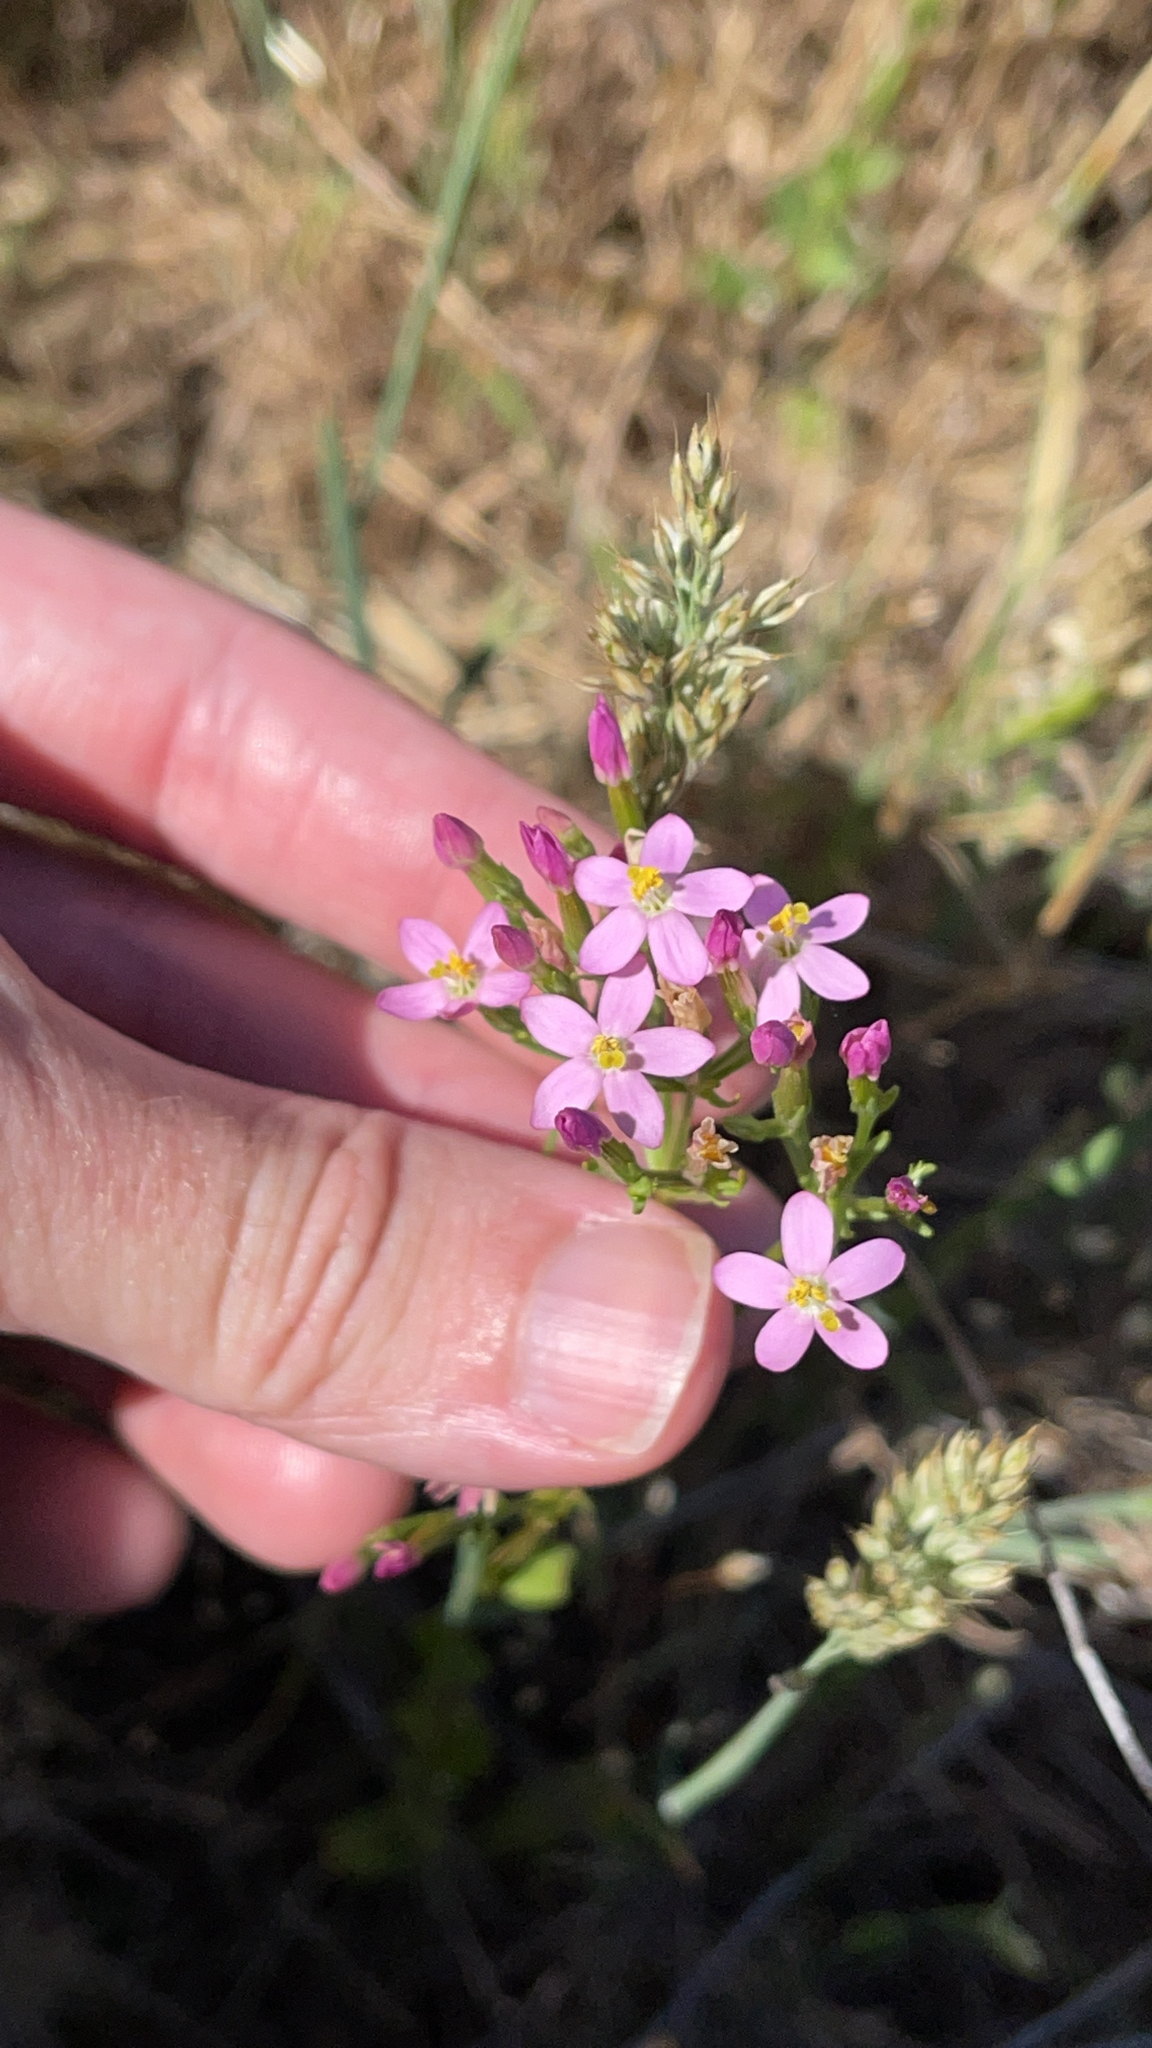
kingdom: Plantae
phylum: Tracheophyta
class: Magnoliopsida
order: Gentianales
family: Gentianaceae
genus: Centaurium
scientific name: Centaurium erythraea
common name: Common centaury
